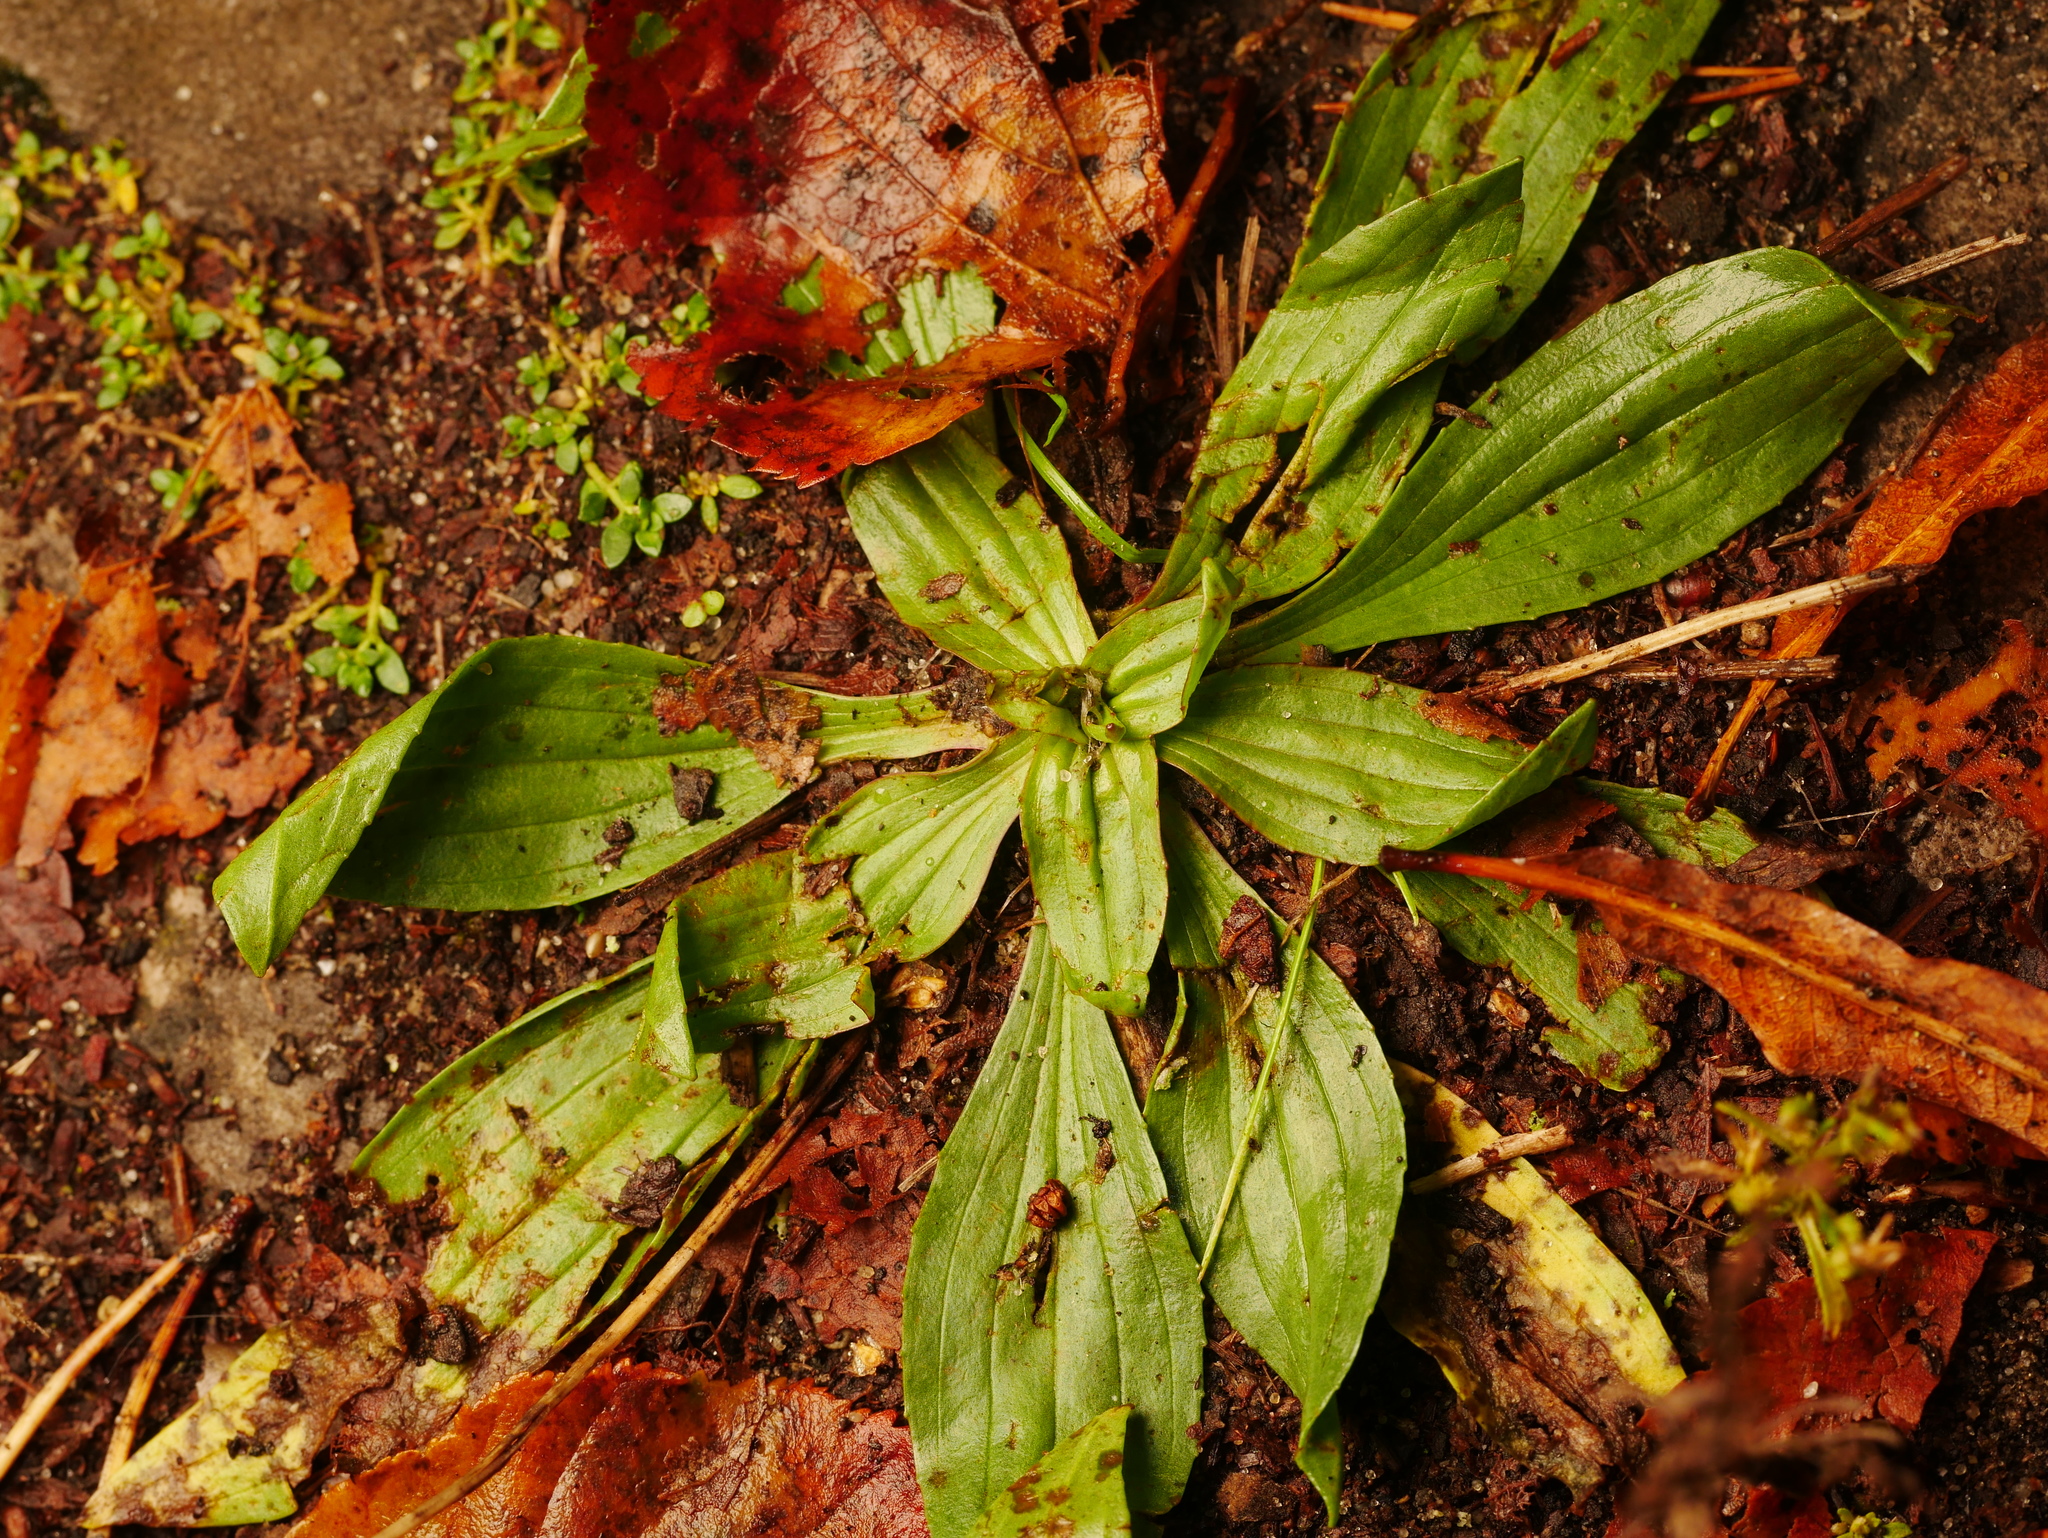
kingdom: Plantae
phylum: Tracheophyta
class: Magnoliopsida
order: Lamiales
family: Plantaginaceae
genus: Plantago
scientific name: Plantago lanceolata
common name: Ribwort plantain
